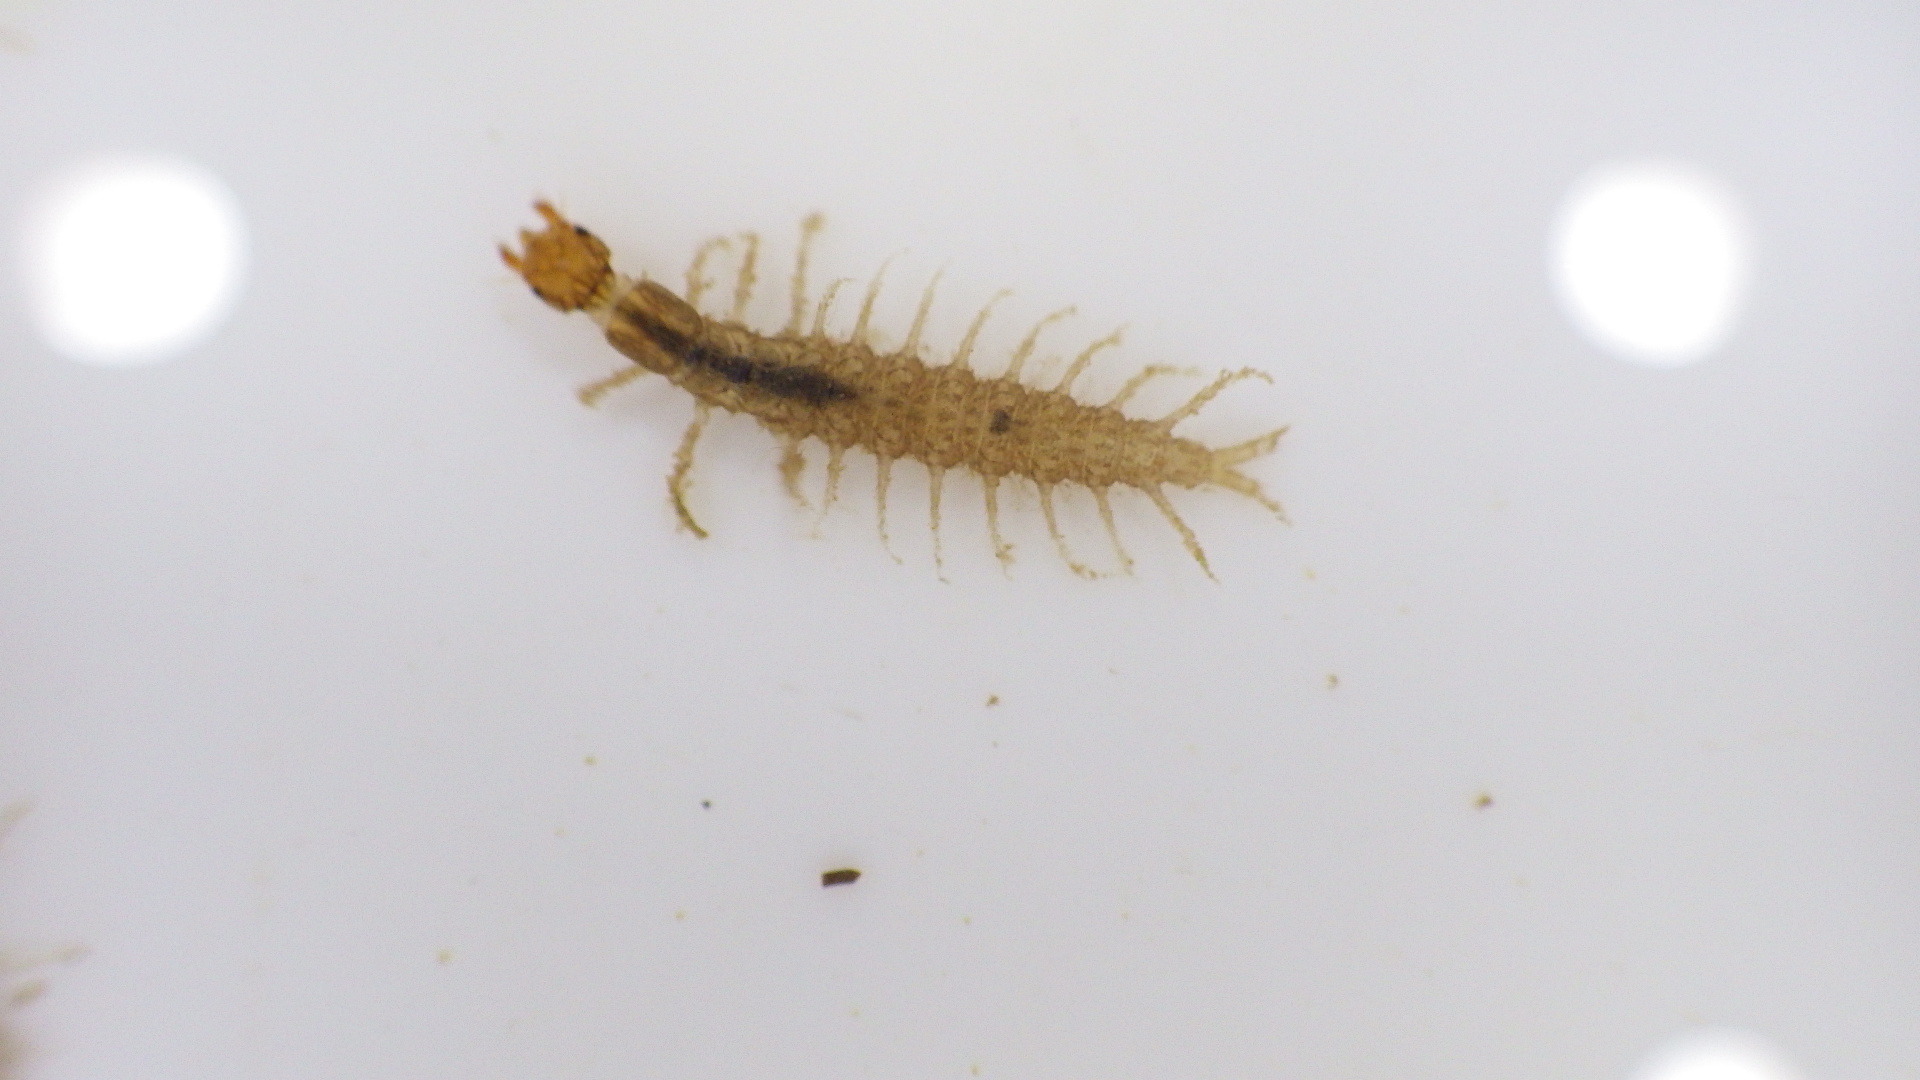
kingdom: Animalia
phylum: Arthropoda
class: Insecta
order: Megaloptera
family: Corydalidae
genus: Corydalus
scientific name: Corydalus cornutus
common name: Dobsonfly
